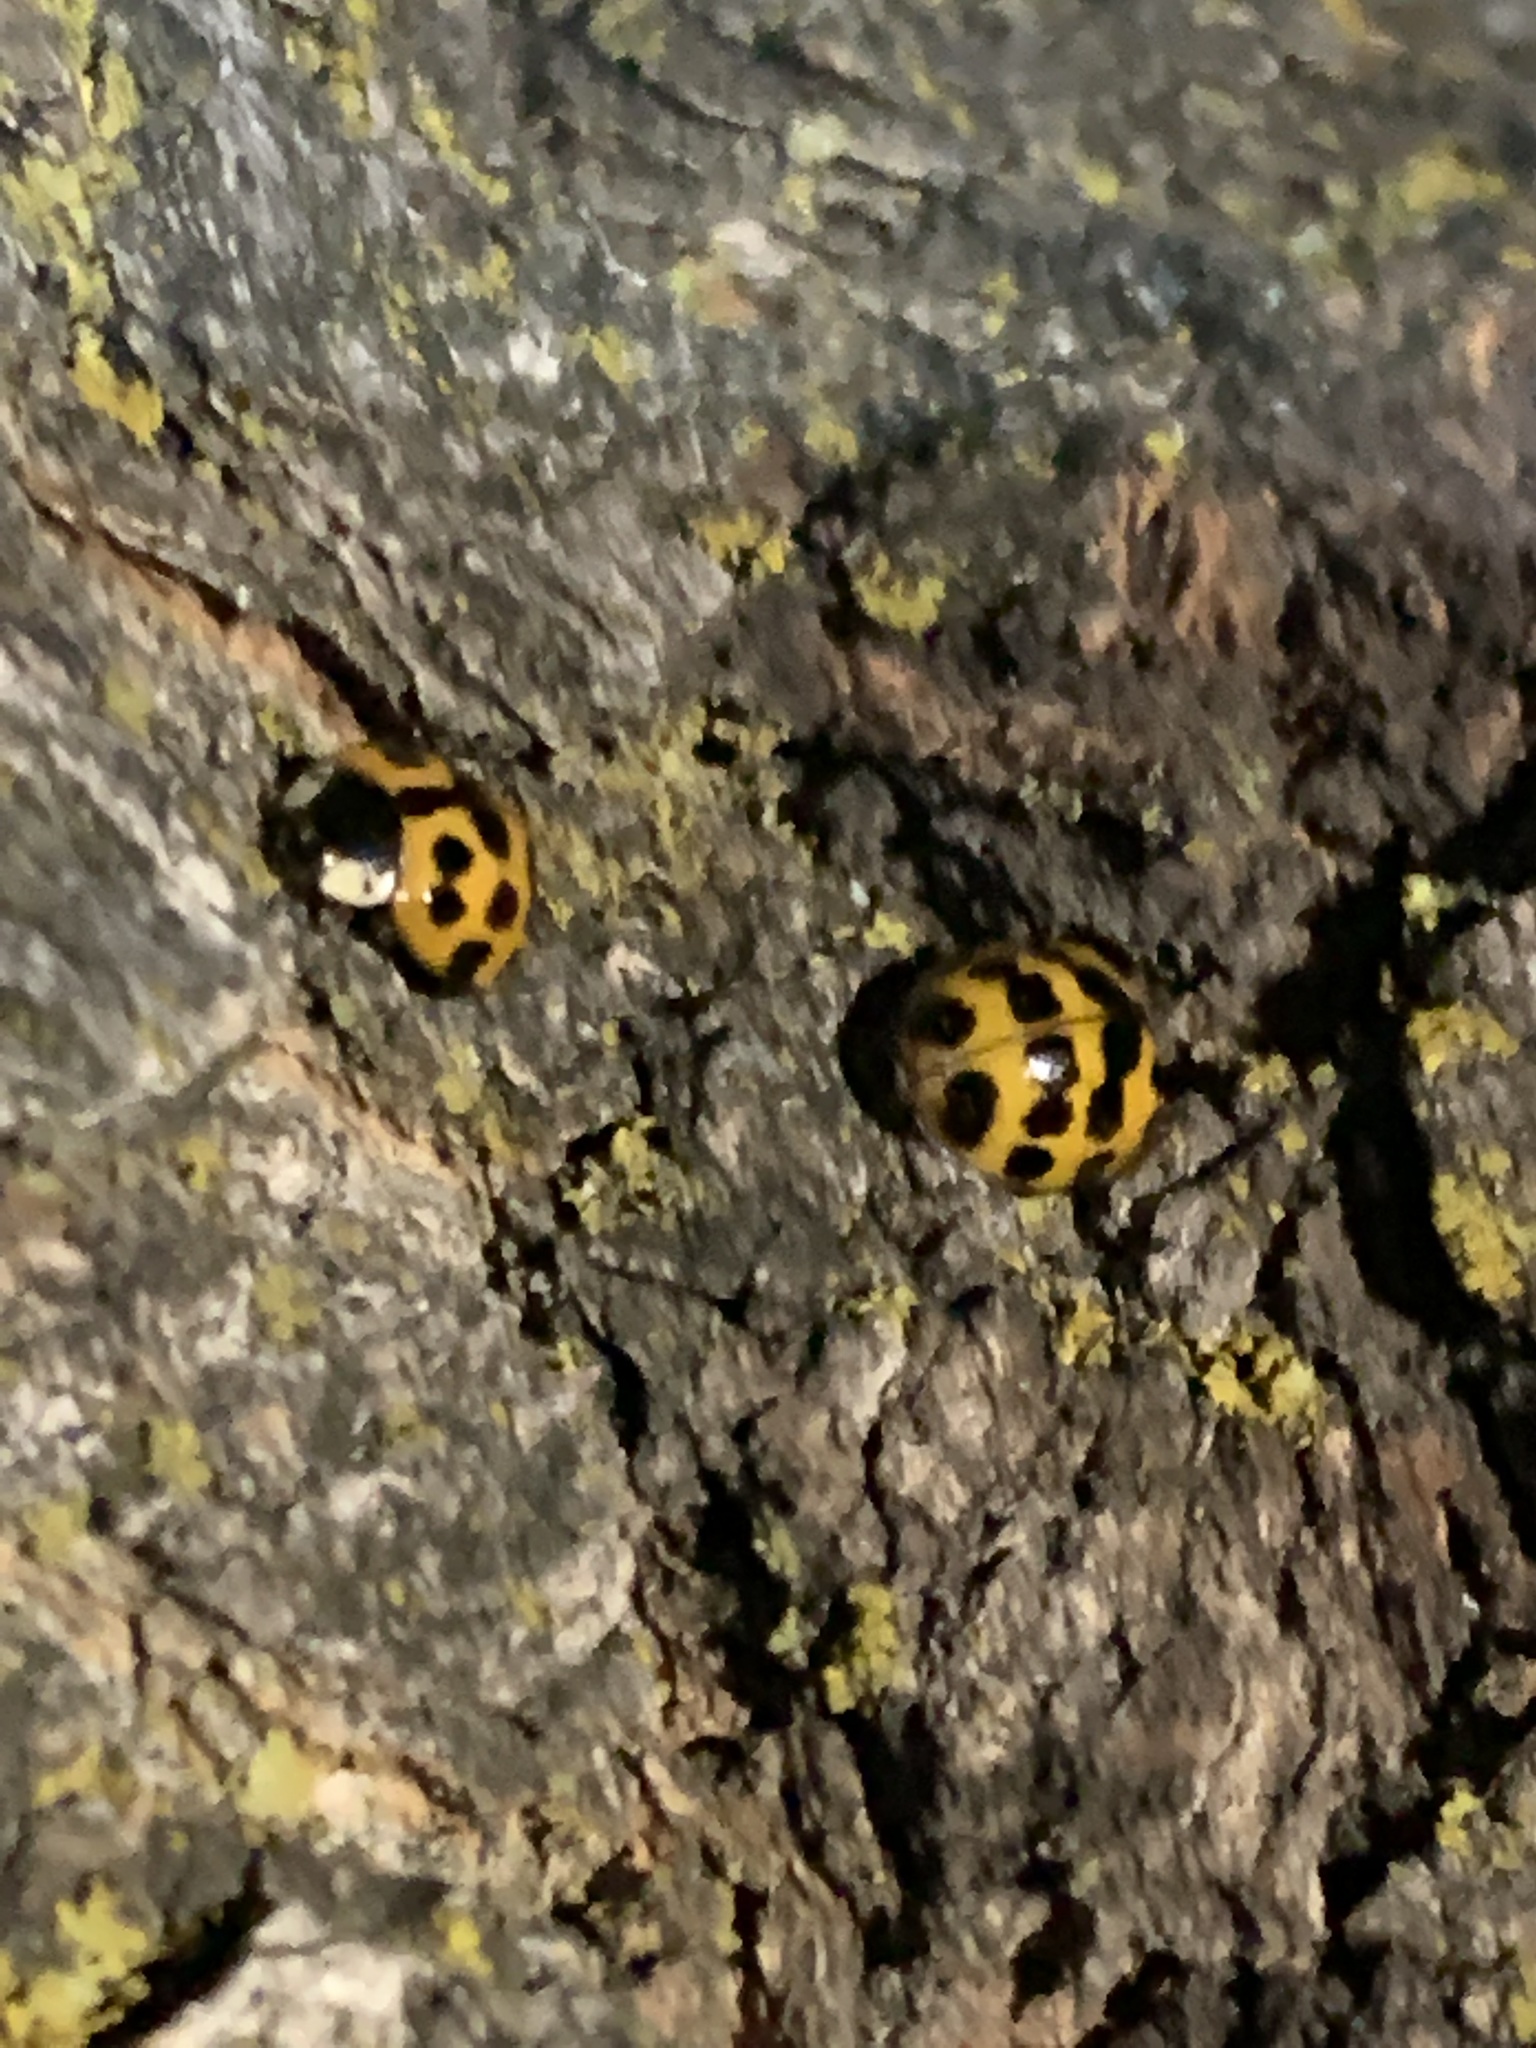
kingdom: Animalia
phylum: Arthropoda
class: Insecta
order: Coleoptera
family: Coccinellidae
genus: Harmonia
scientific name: Harmonia axyridis
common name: Harlequin ladybird
